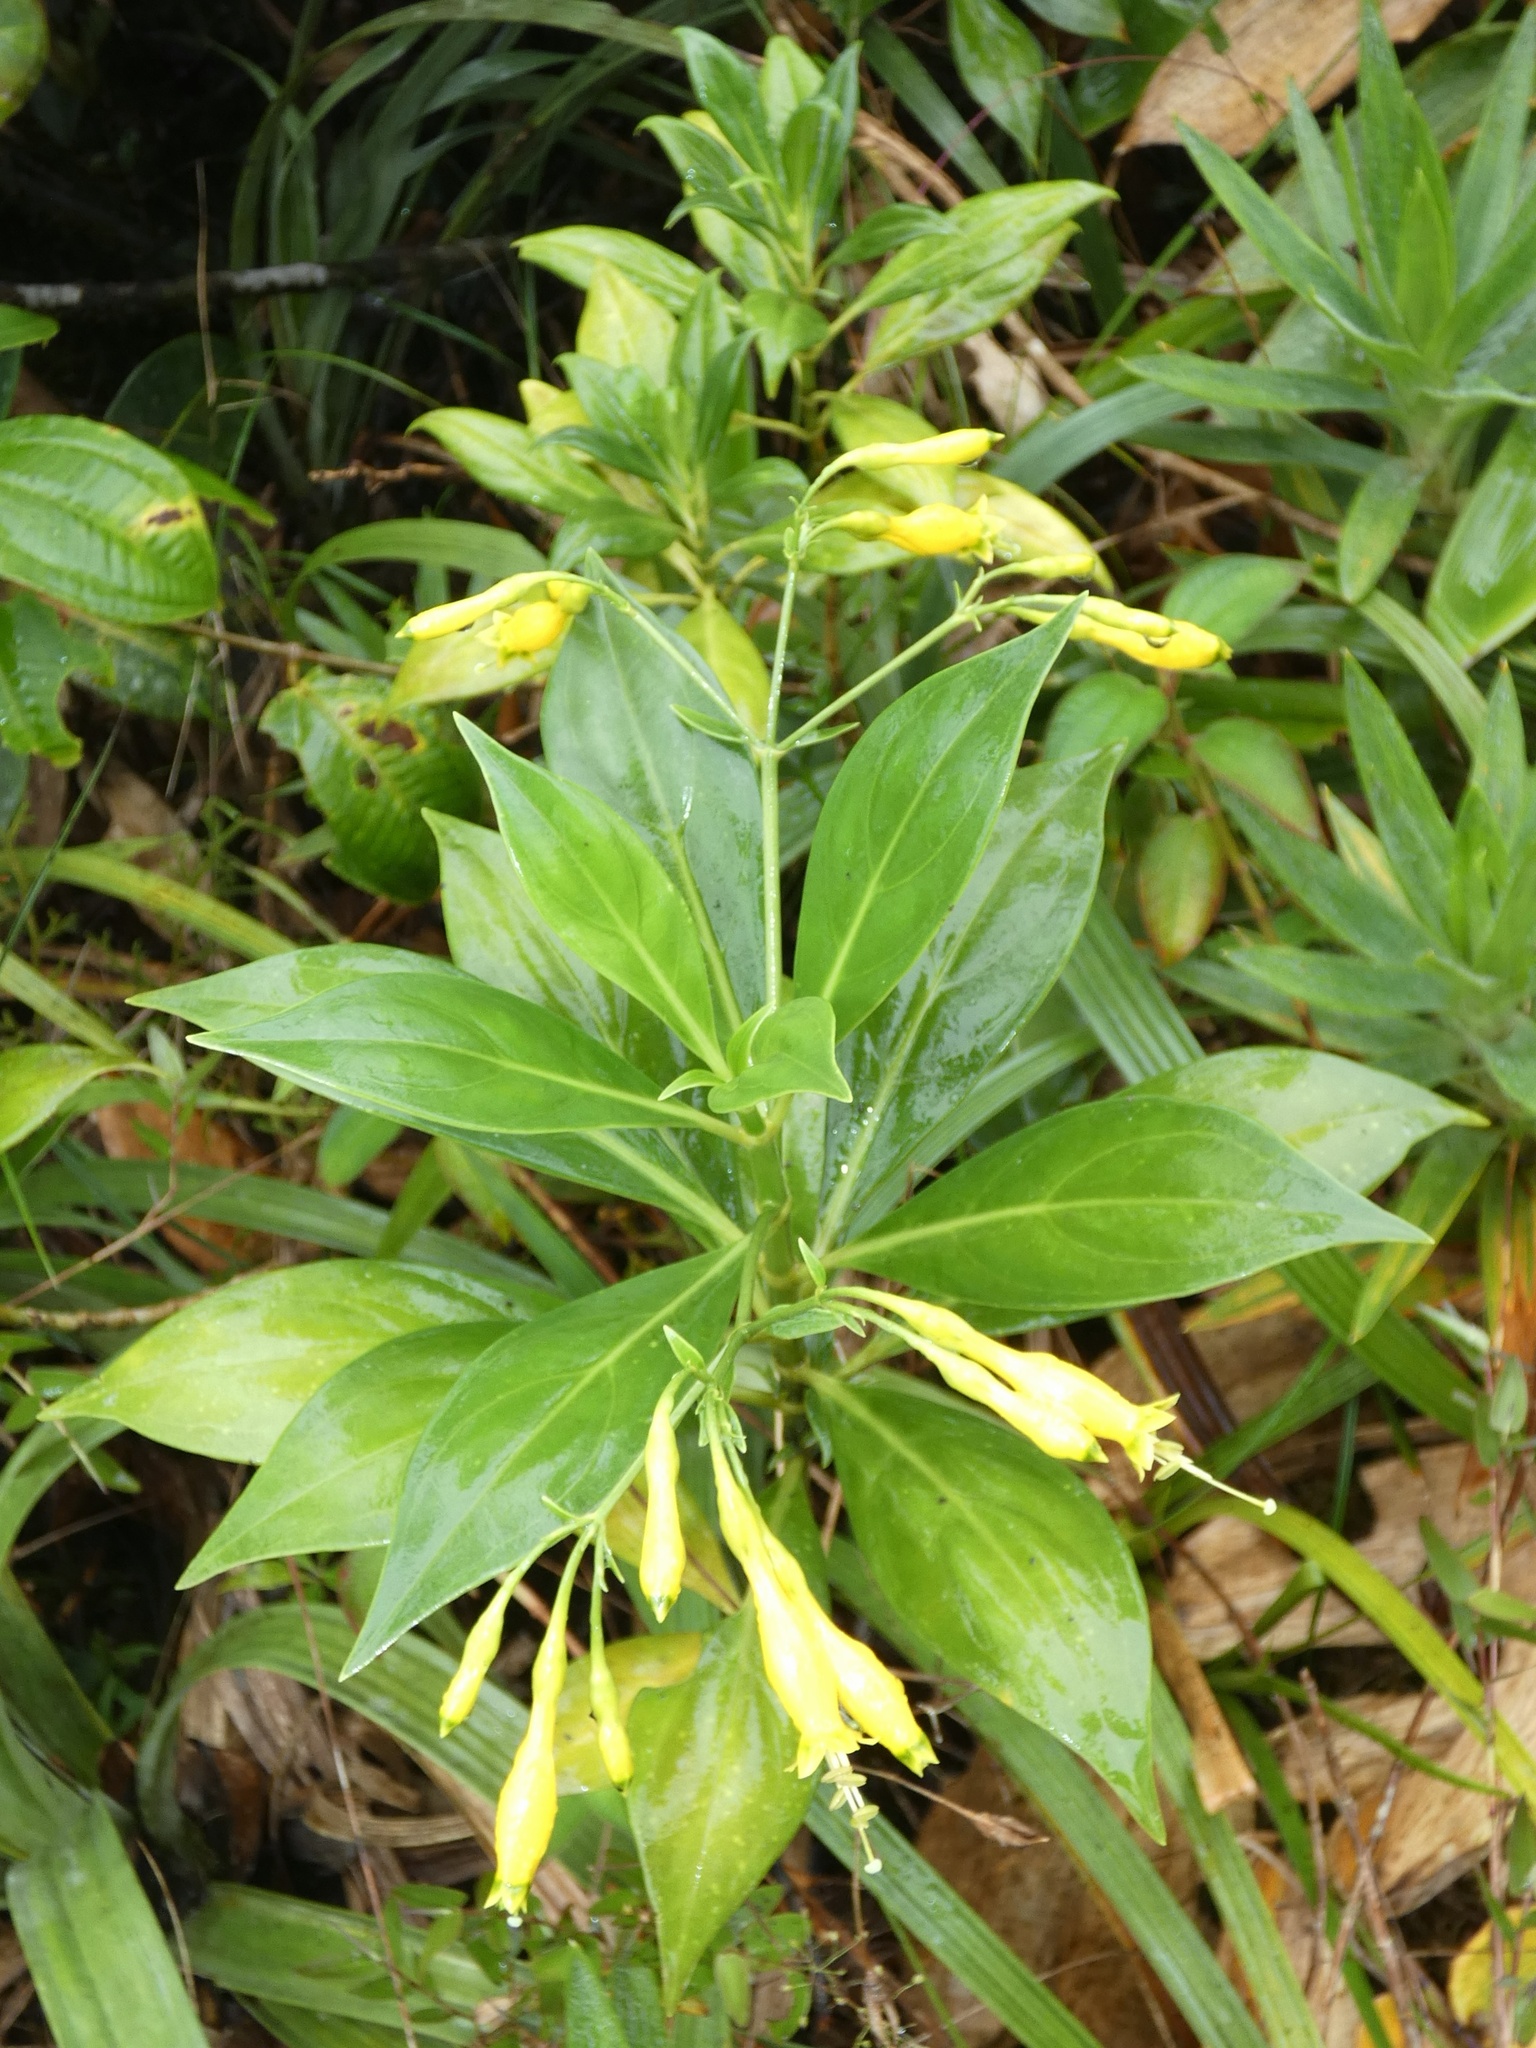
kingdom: Plantae
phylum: Tracheophyta
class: Magnoliopsida
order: Gentianales
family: Gentianaceae
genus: Lisianthius
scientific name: Lisianthius jefensis
